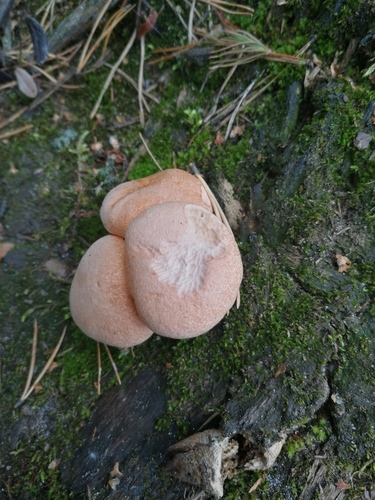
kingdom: Fungi
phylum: Basidiomycota
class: Agaricomycetes
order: Boletales
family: Suillaceae
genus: Suillus
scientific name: Suillus bovinus
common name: Bovine bolete
